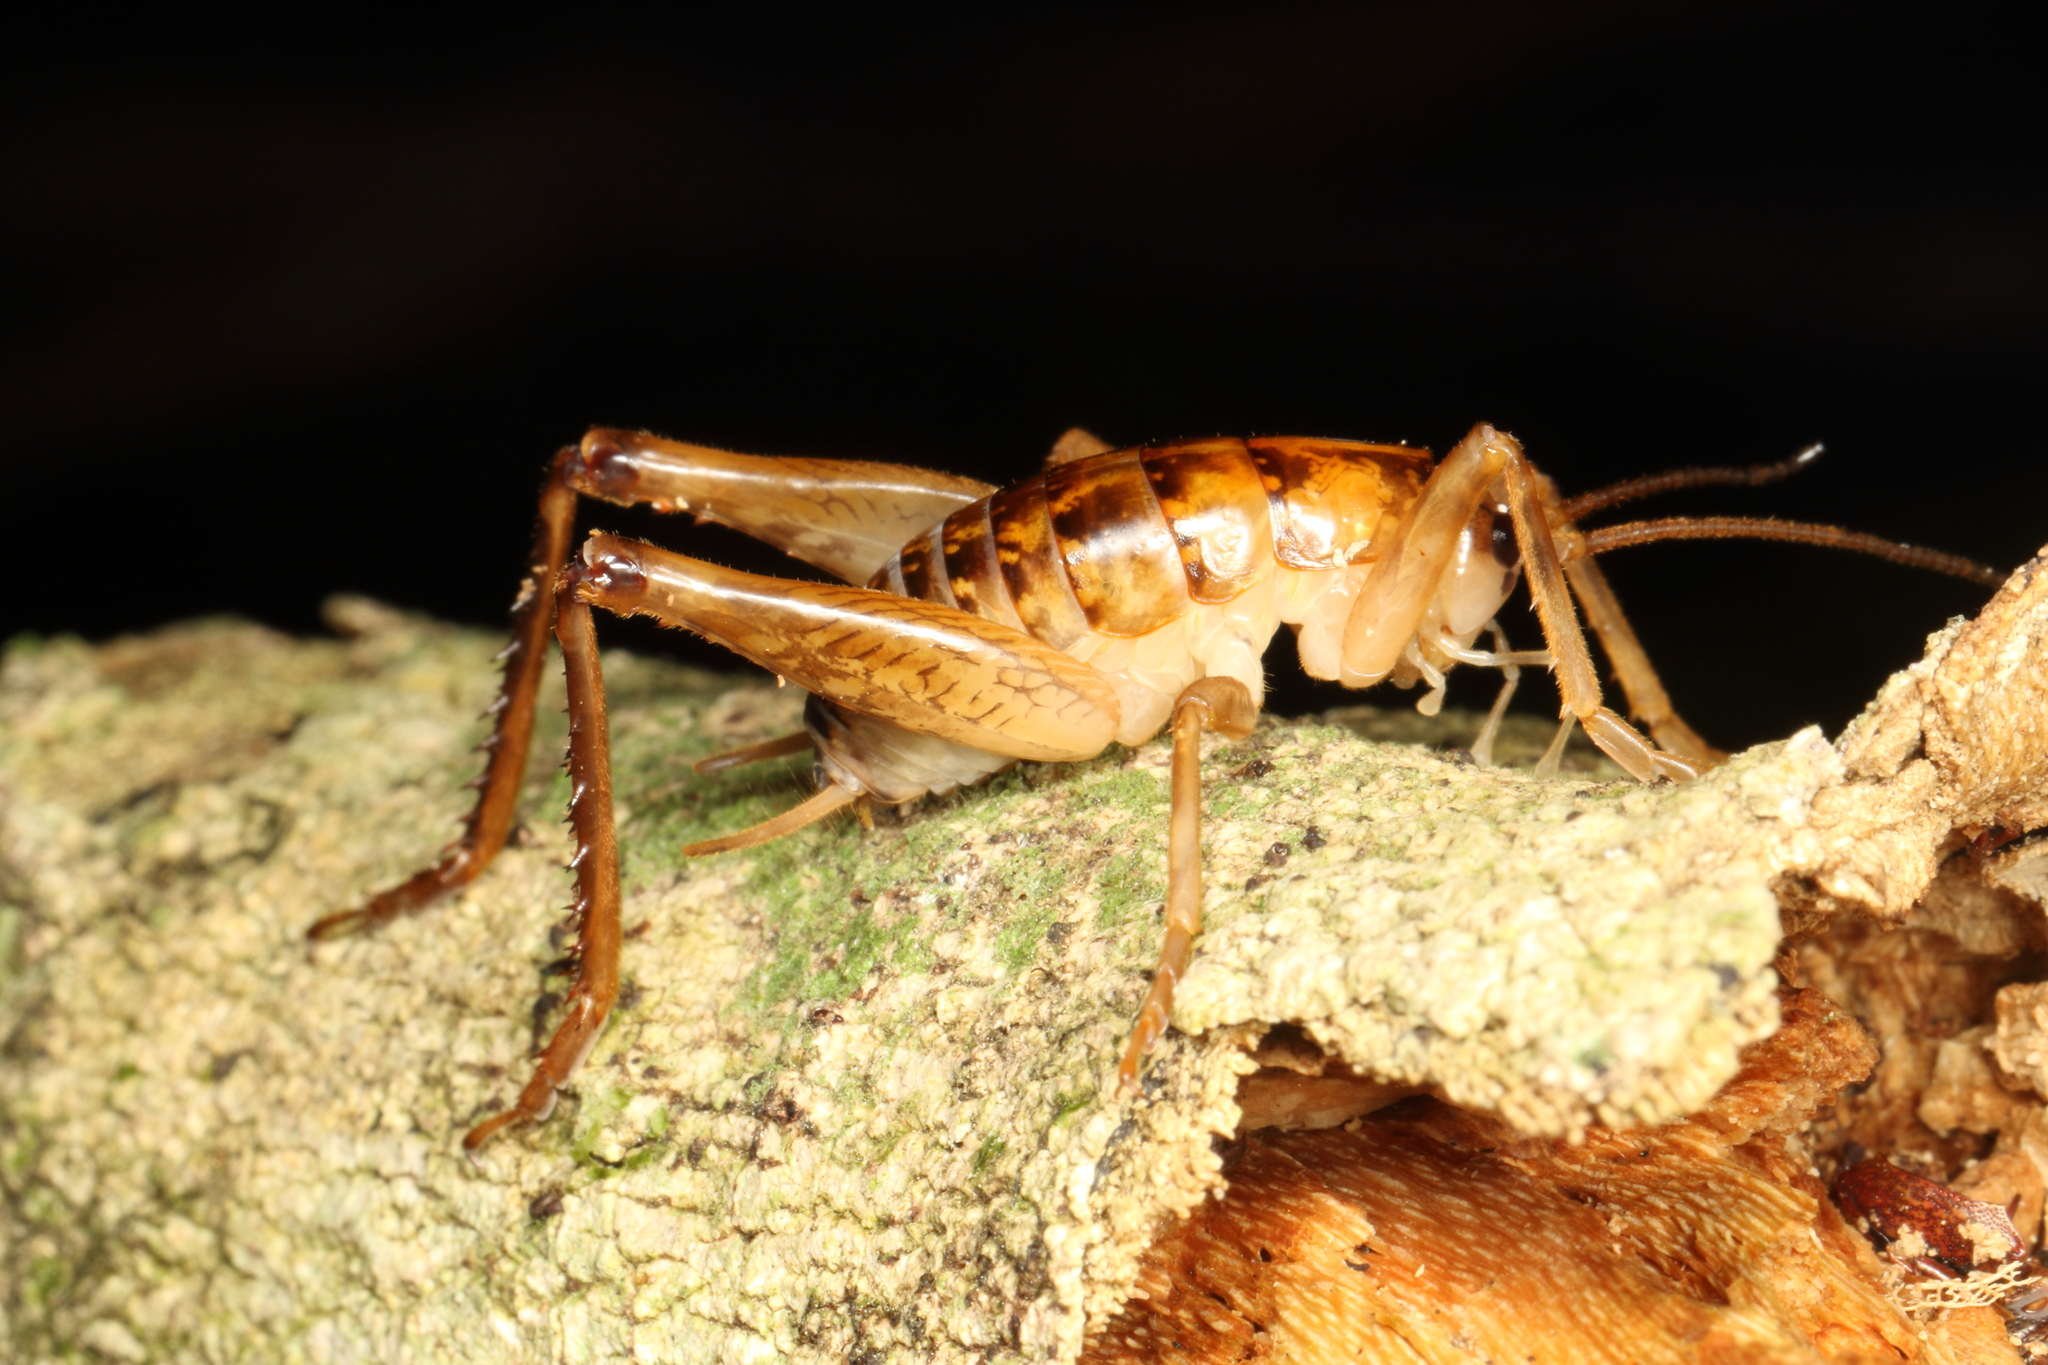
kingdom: Animalia
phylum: Arthropoda
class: Insecta
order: Orthoptera
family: Rhaphidophoridae
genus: Talitropsis
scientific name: Talitropsis sedilloti
